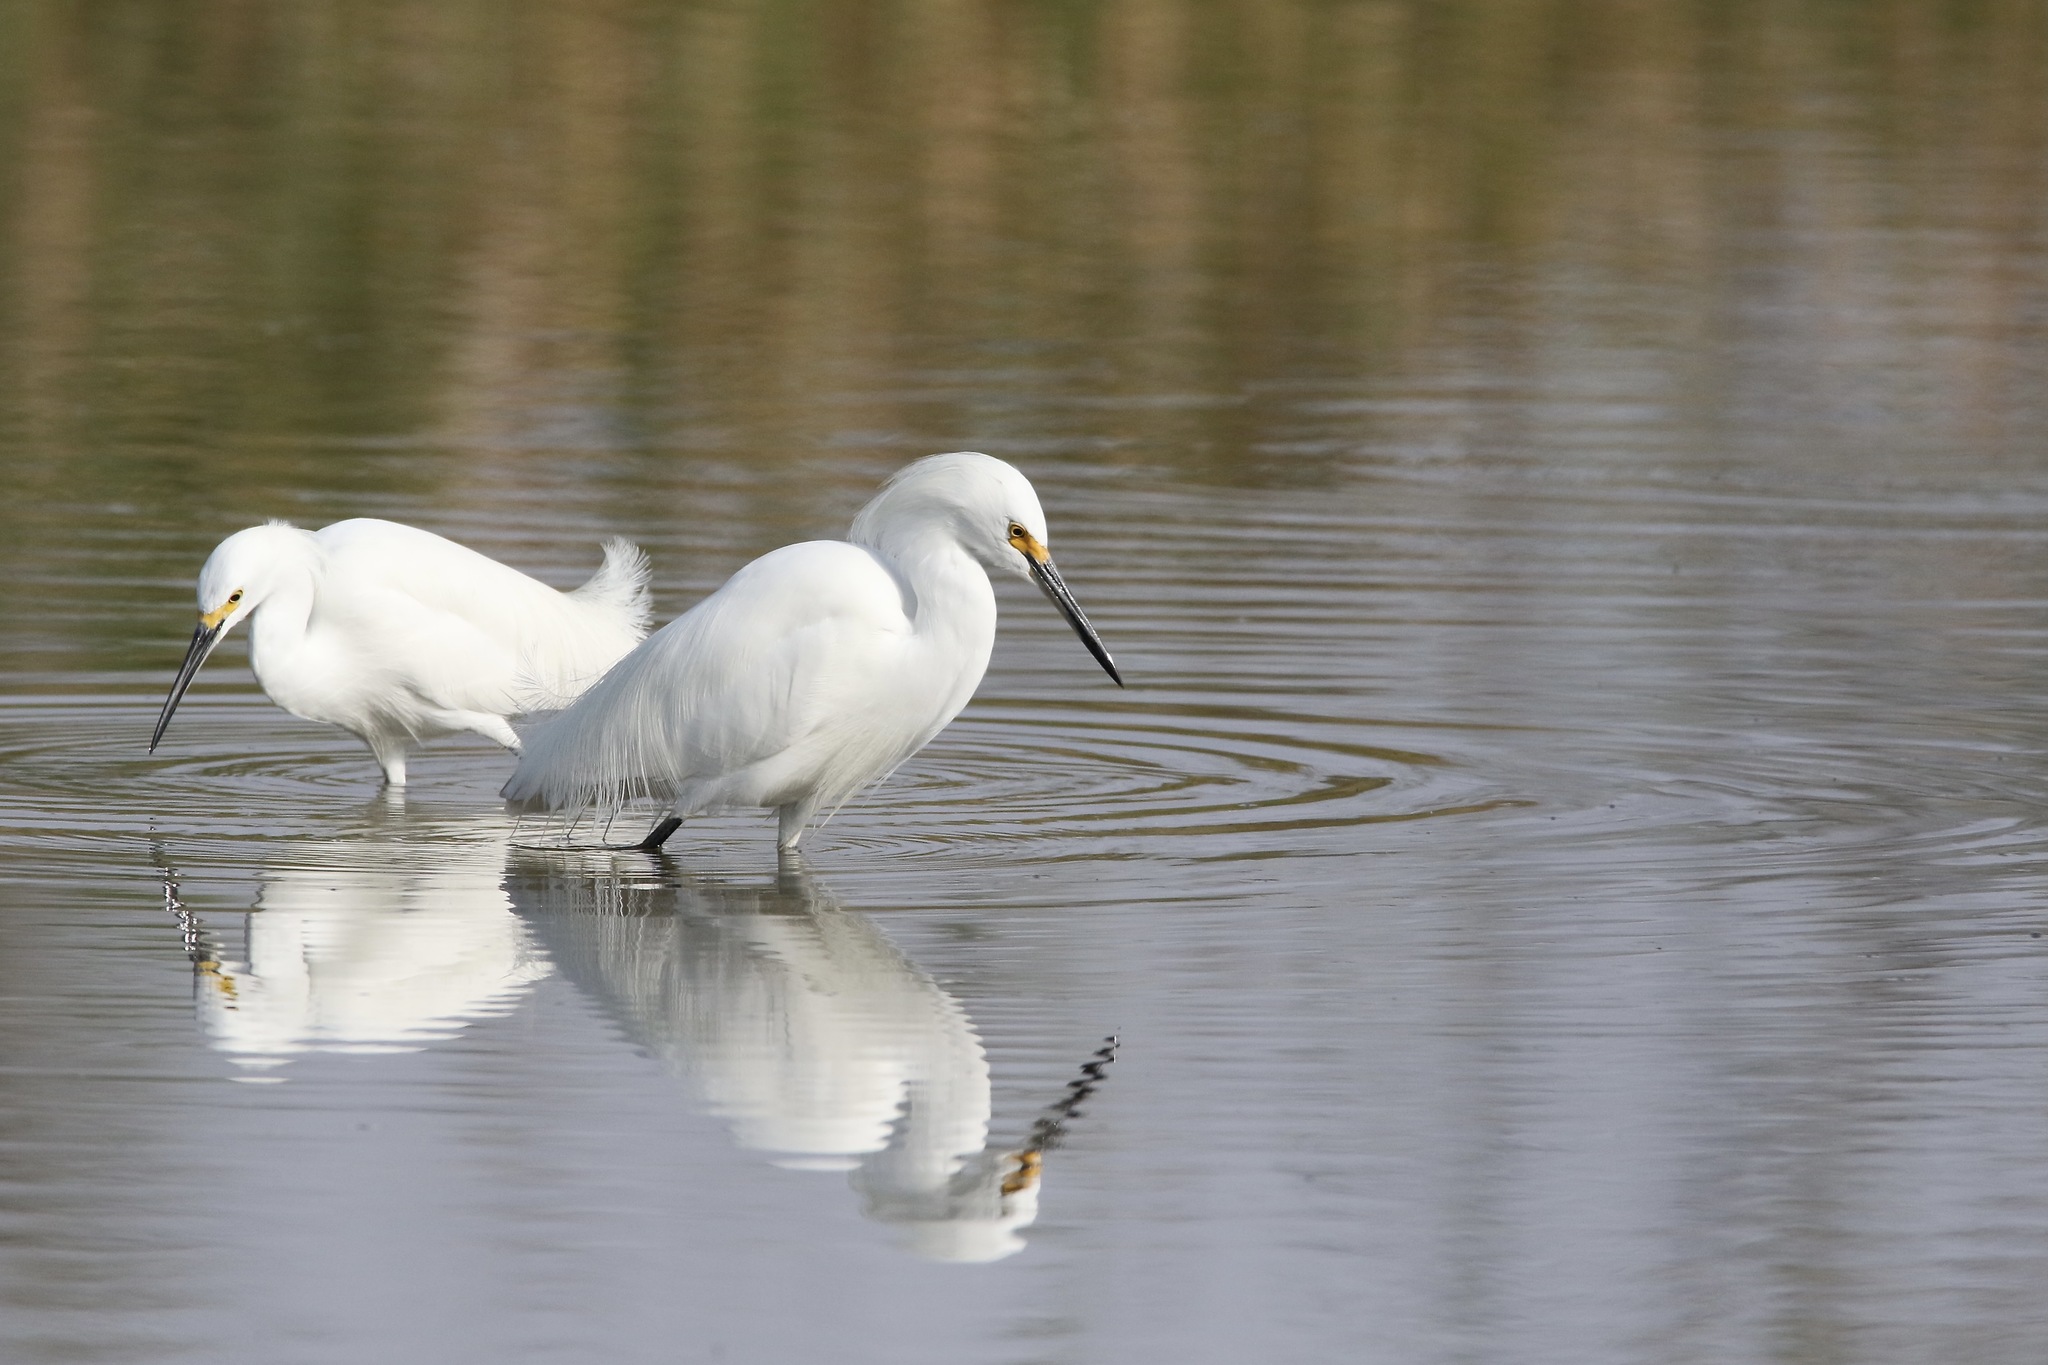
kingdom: Animalia
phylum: Chordata
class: Aves
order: Pelecaniformes
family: Ardeidae
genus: Egretta
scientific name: Egretta thula
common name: Snowy egret
